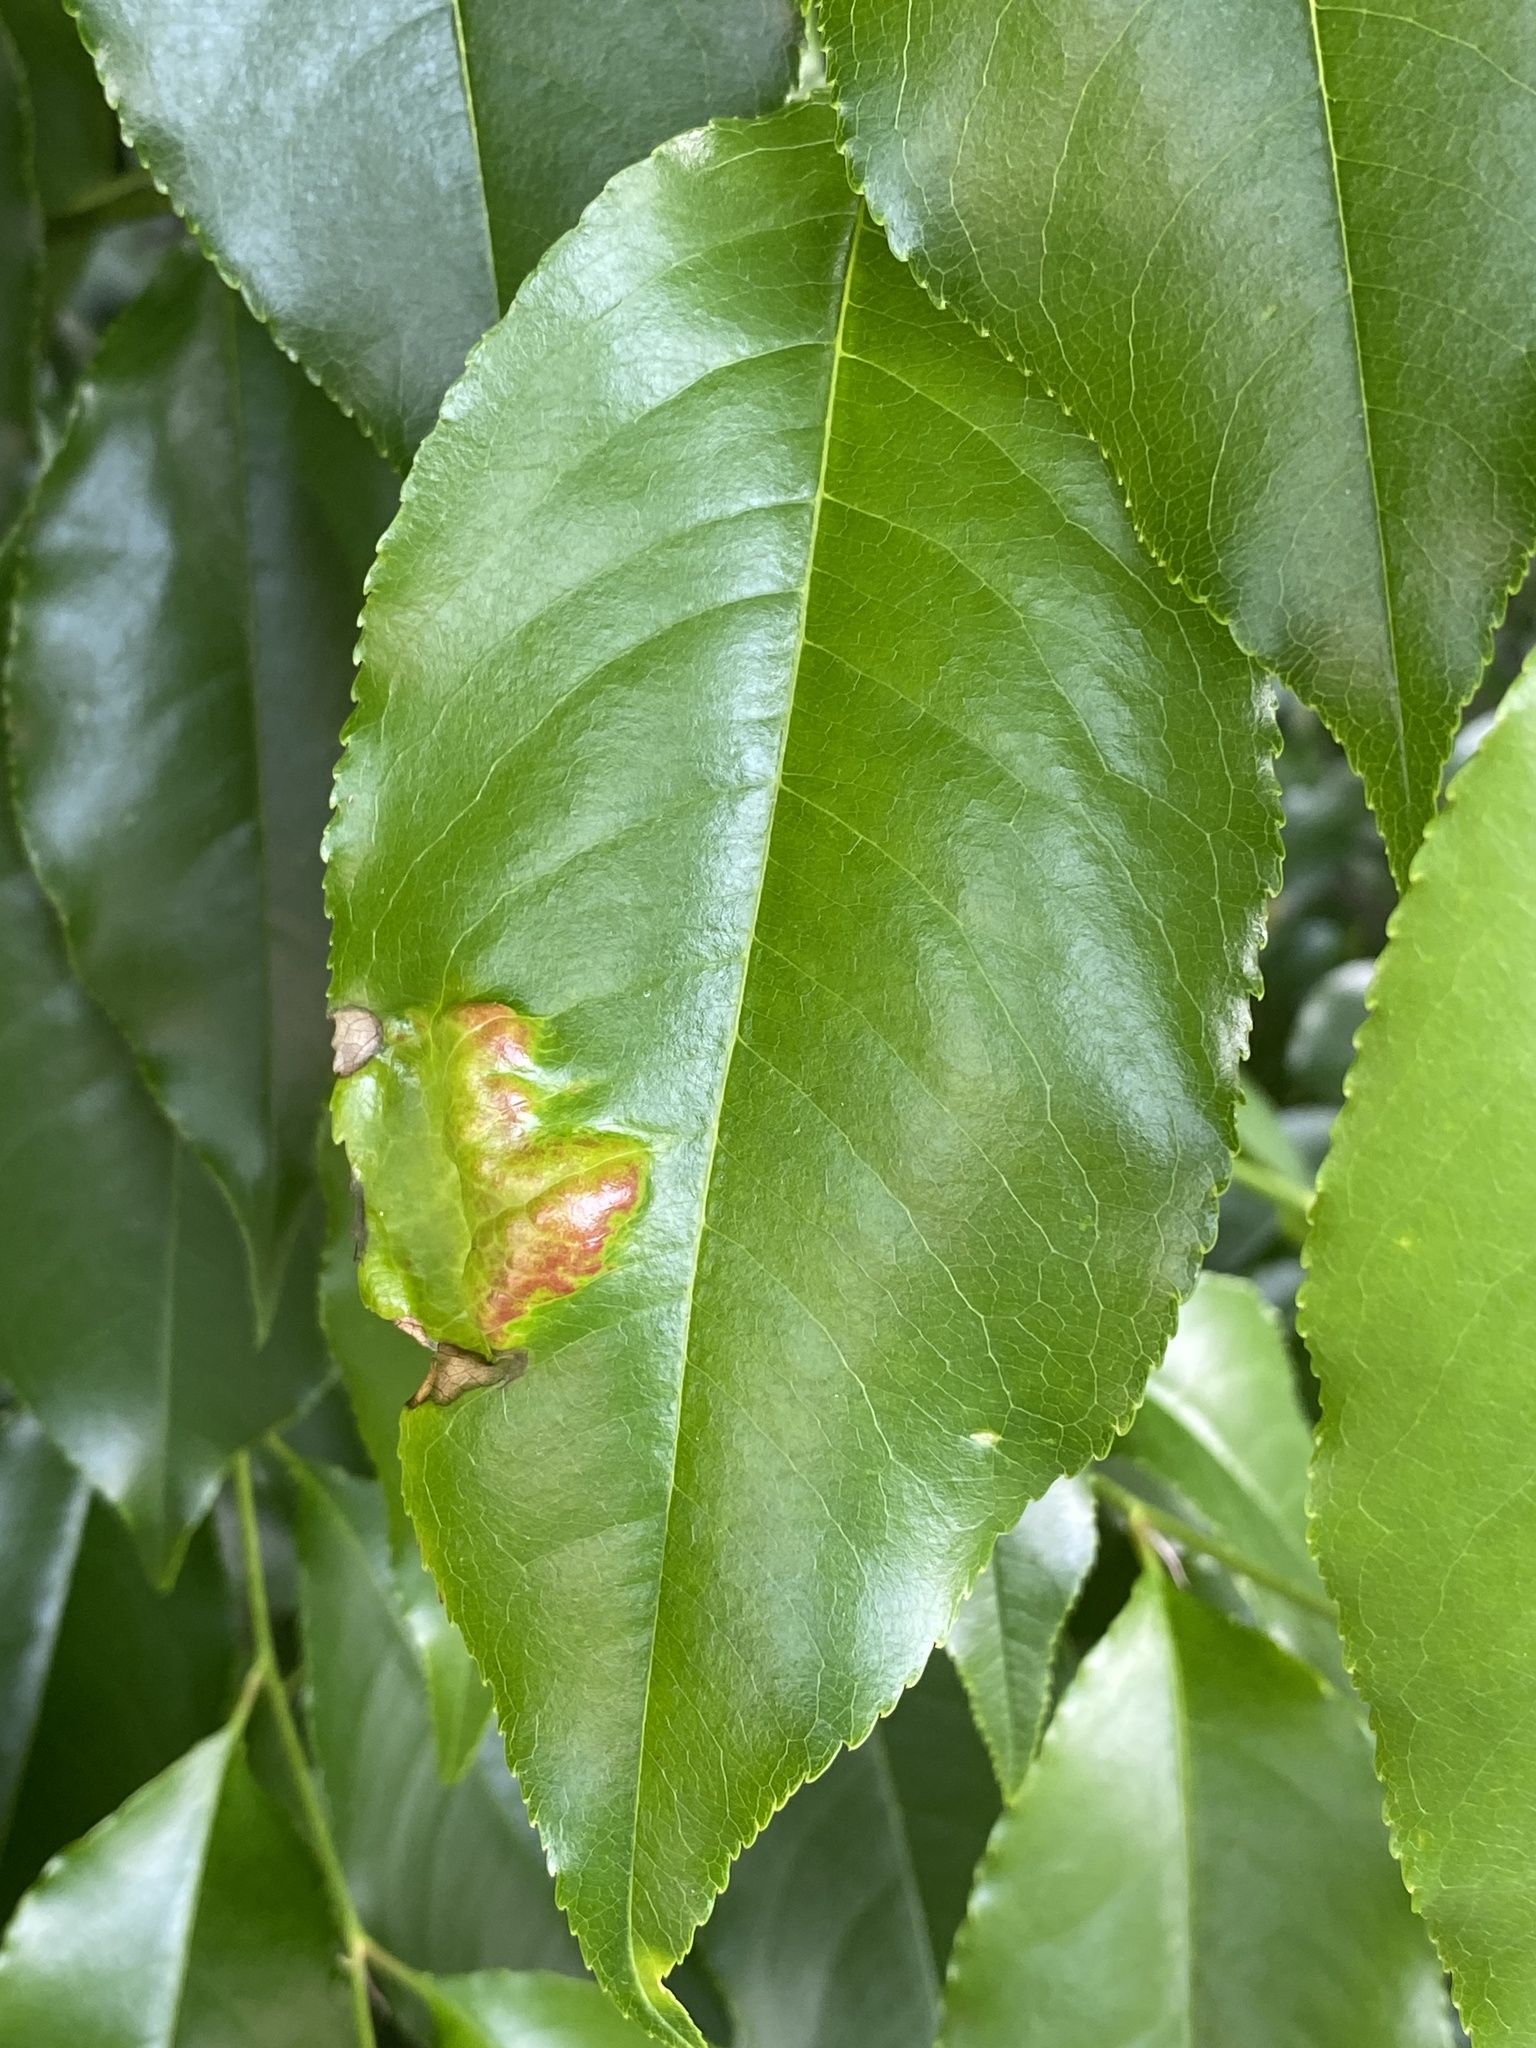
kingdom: Fungi
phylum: Ascomycota
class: Taphrinomycetes
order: Taphrinales
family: Taphrinaceae
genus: Taphrina
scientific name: Taphrina farlowii
